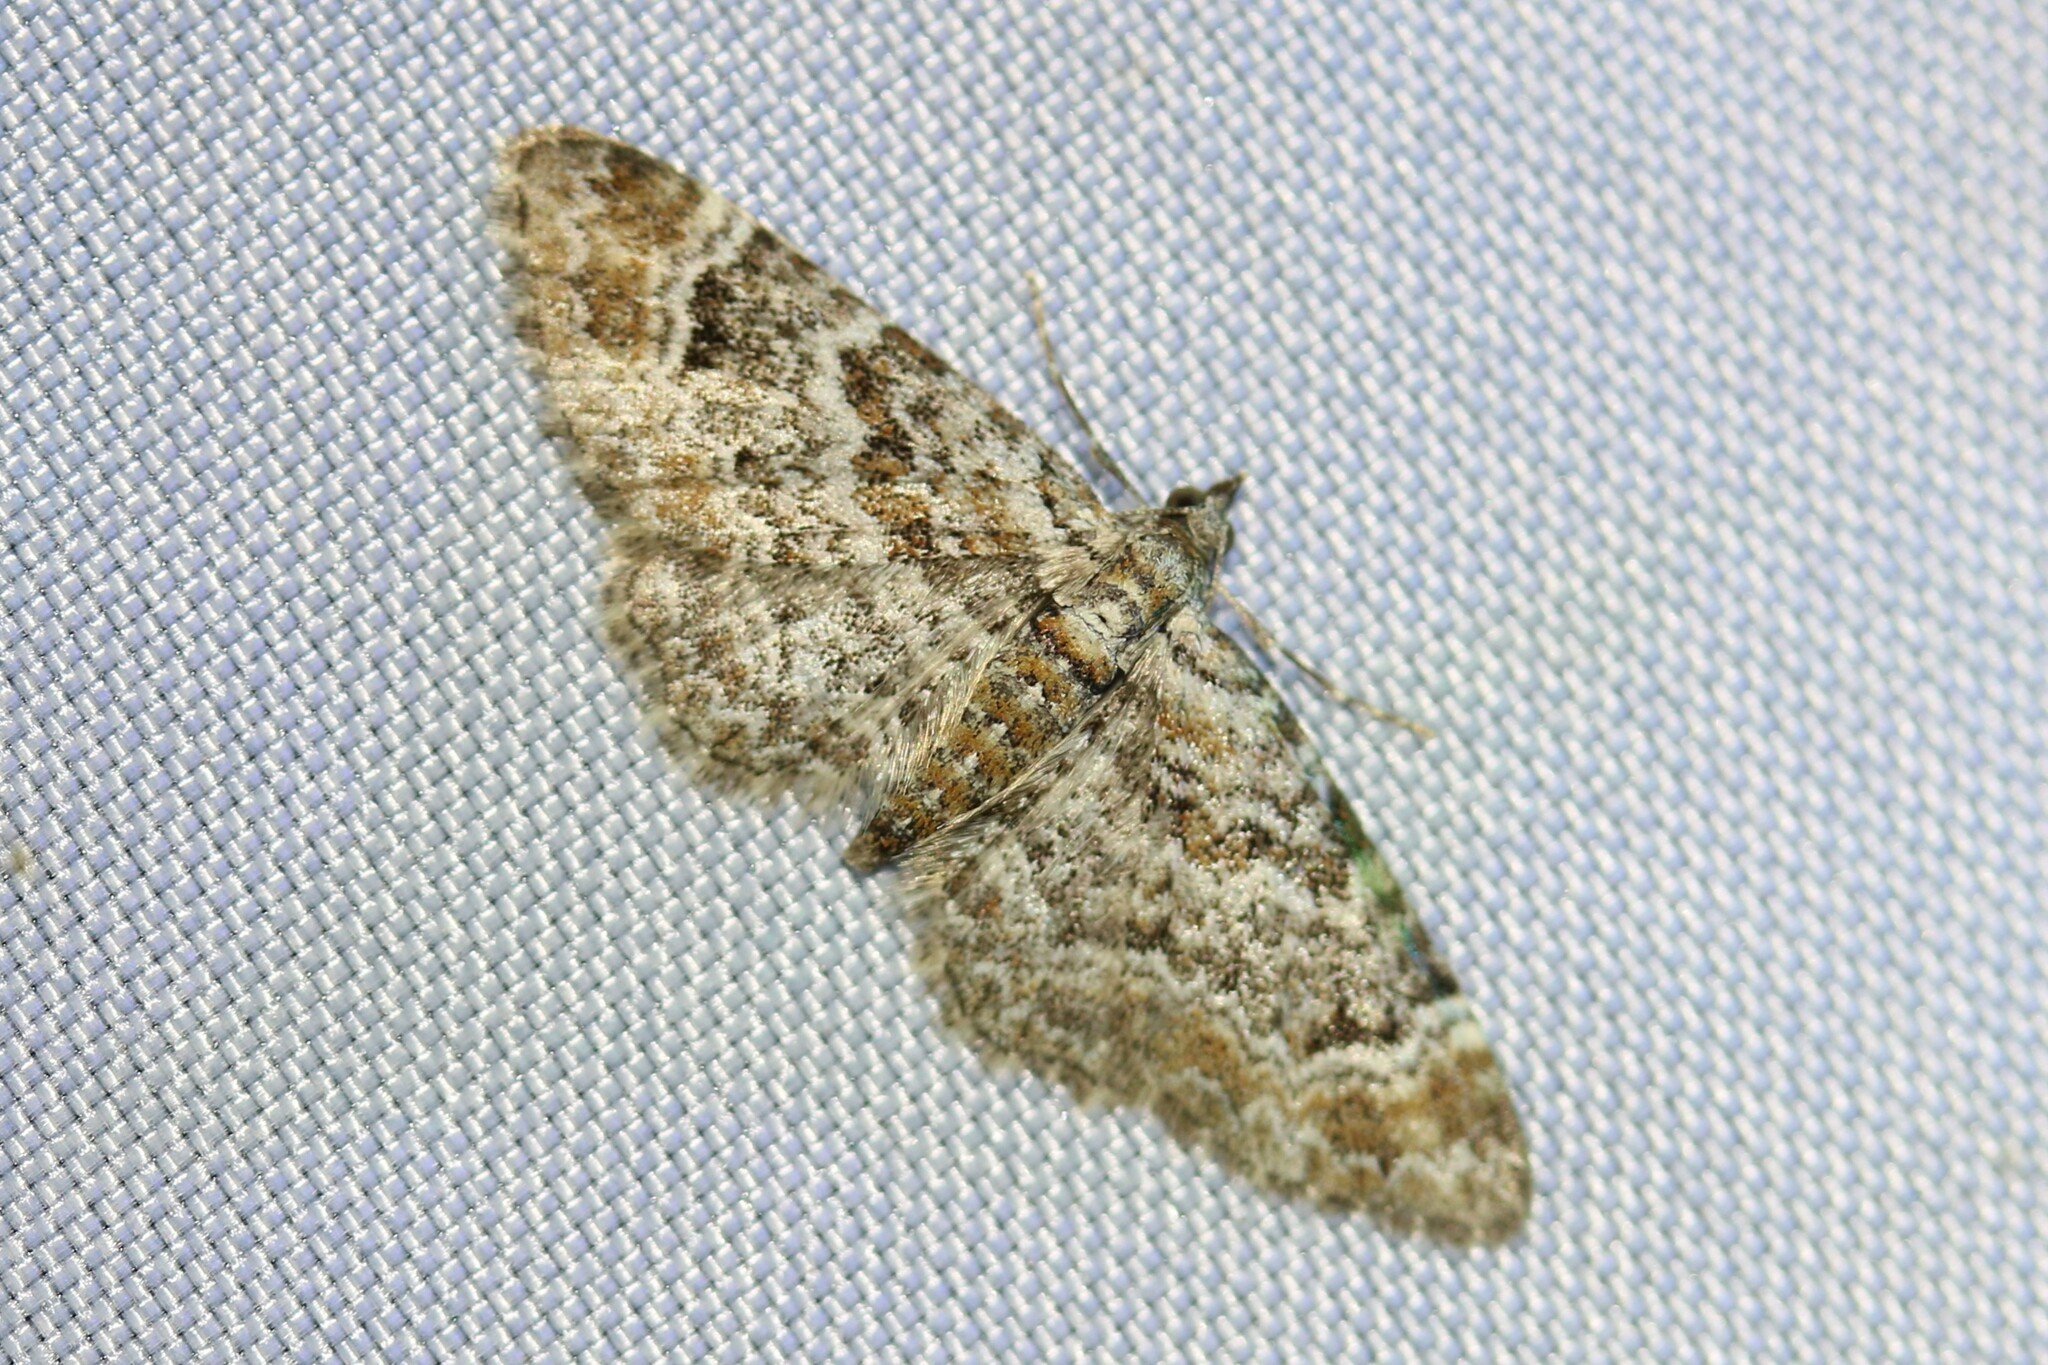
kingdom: Animalia
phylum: Arthropoda
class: Insecta
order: Lepidoptera
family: Geometridae
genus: Gymnoscelis
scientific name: Gymnoscelis rufifasciata
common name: Double-striped pug
